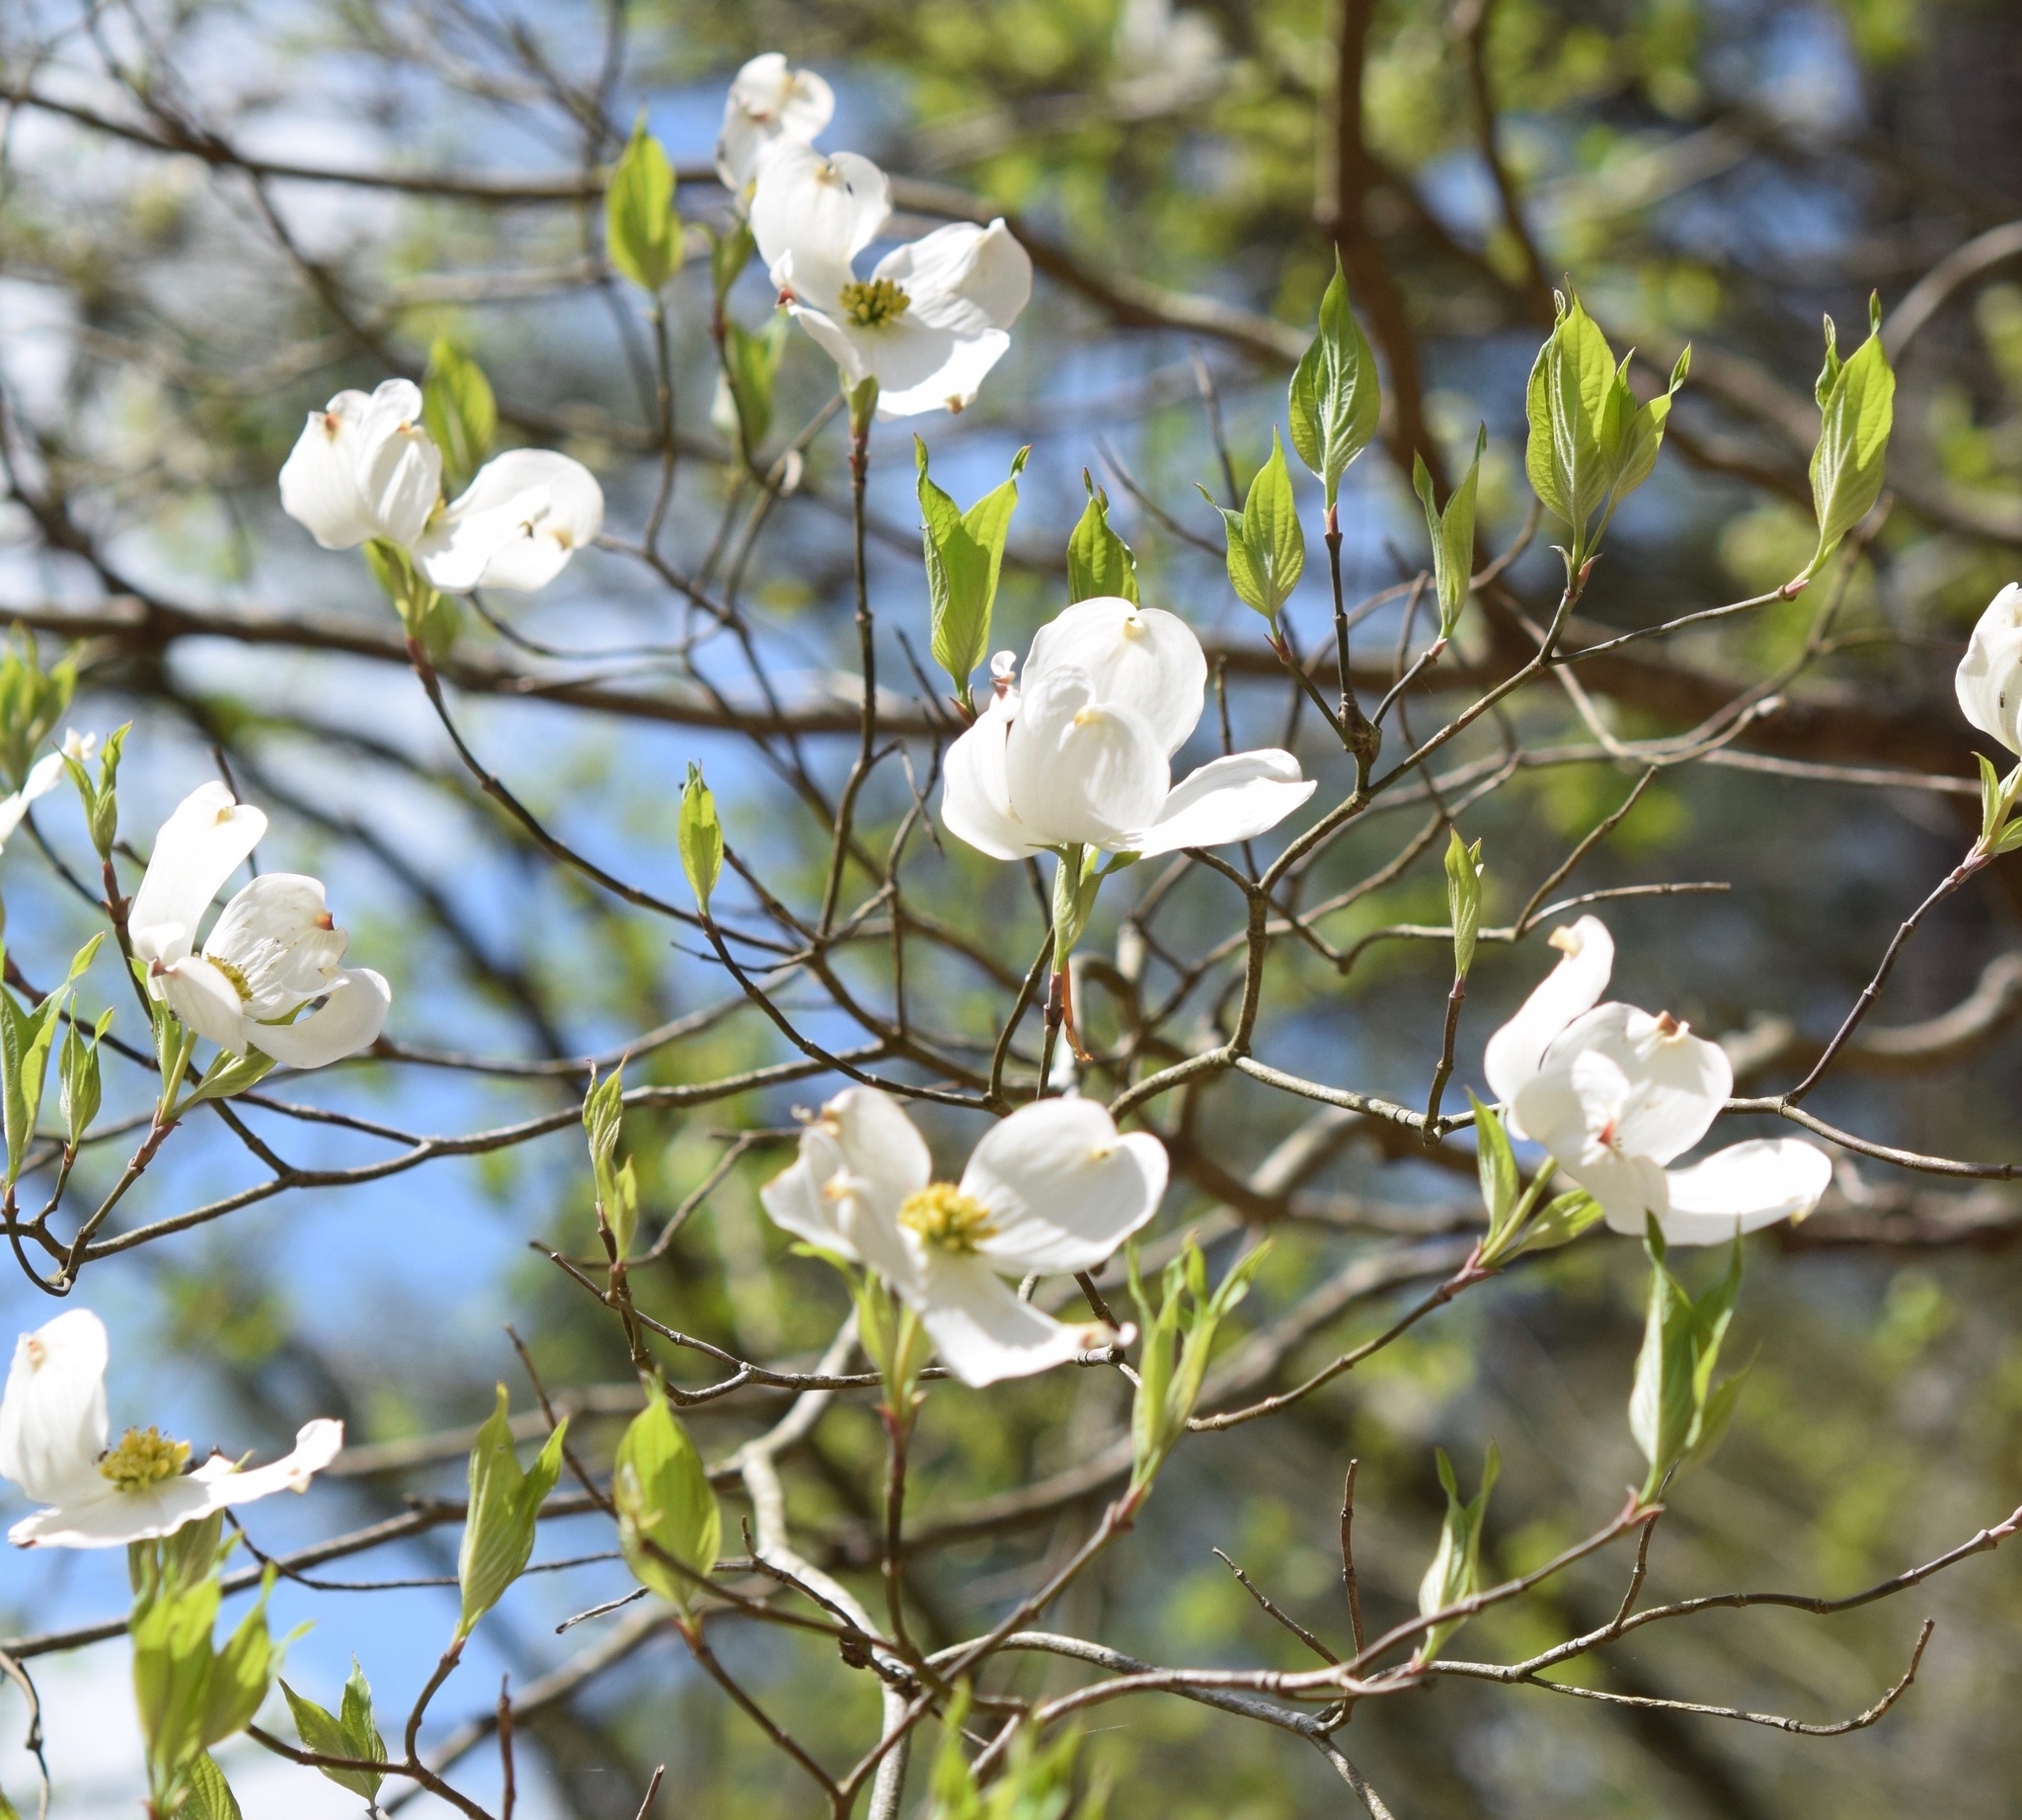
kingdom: Plantae
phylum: Tracheophyta
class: Magnoliopsida
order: Cornales
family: Cornaceae
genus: Cornus
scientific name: Cornus florida
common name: Flowering dogwood
